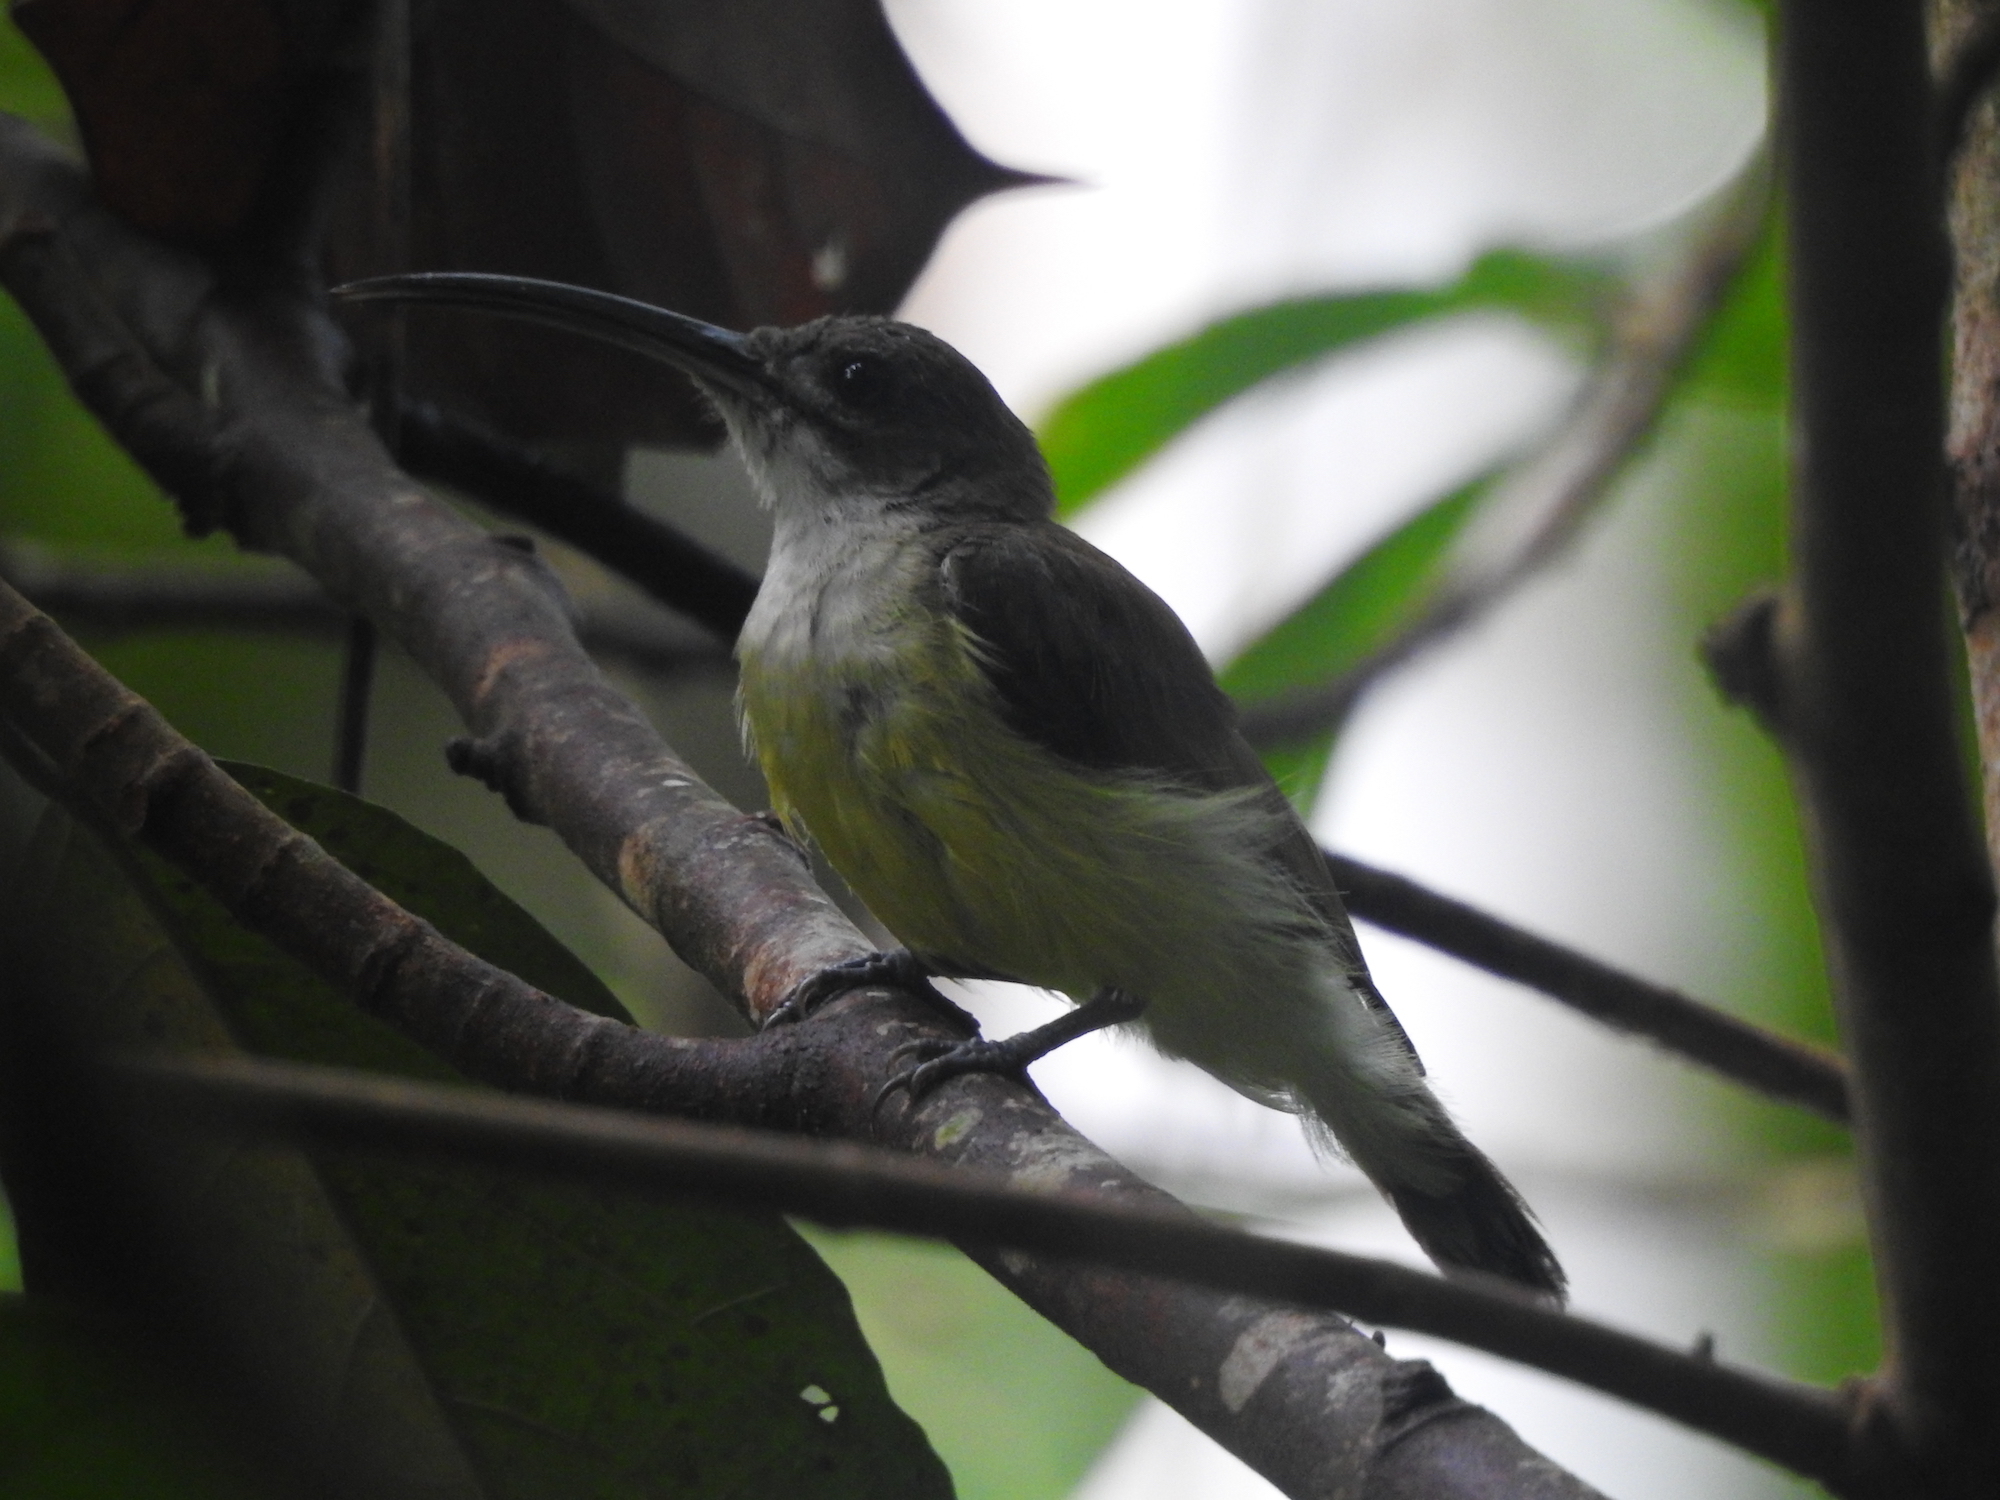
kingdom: Animalia
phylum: Chordata
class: Aves
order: Passeriformes
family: Nectariniidae
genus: Arachnothera
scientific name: Arachnothera longirostra
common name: Little spiderhunter
